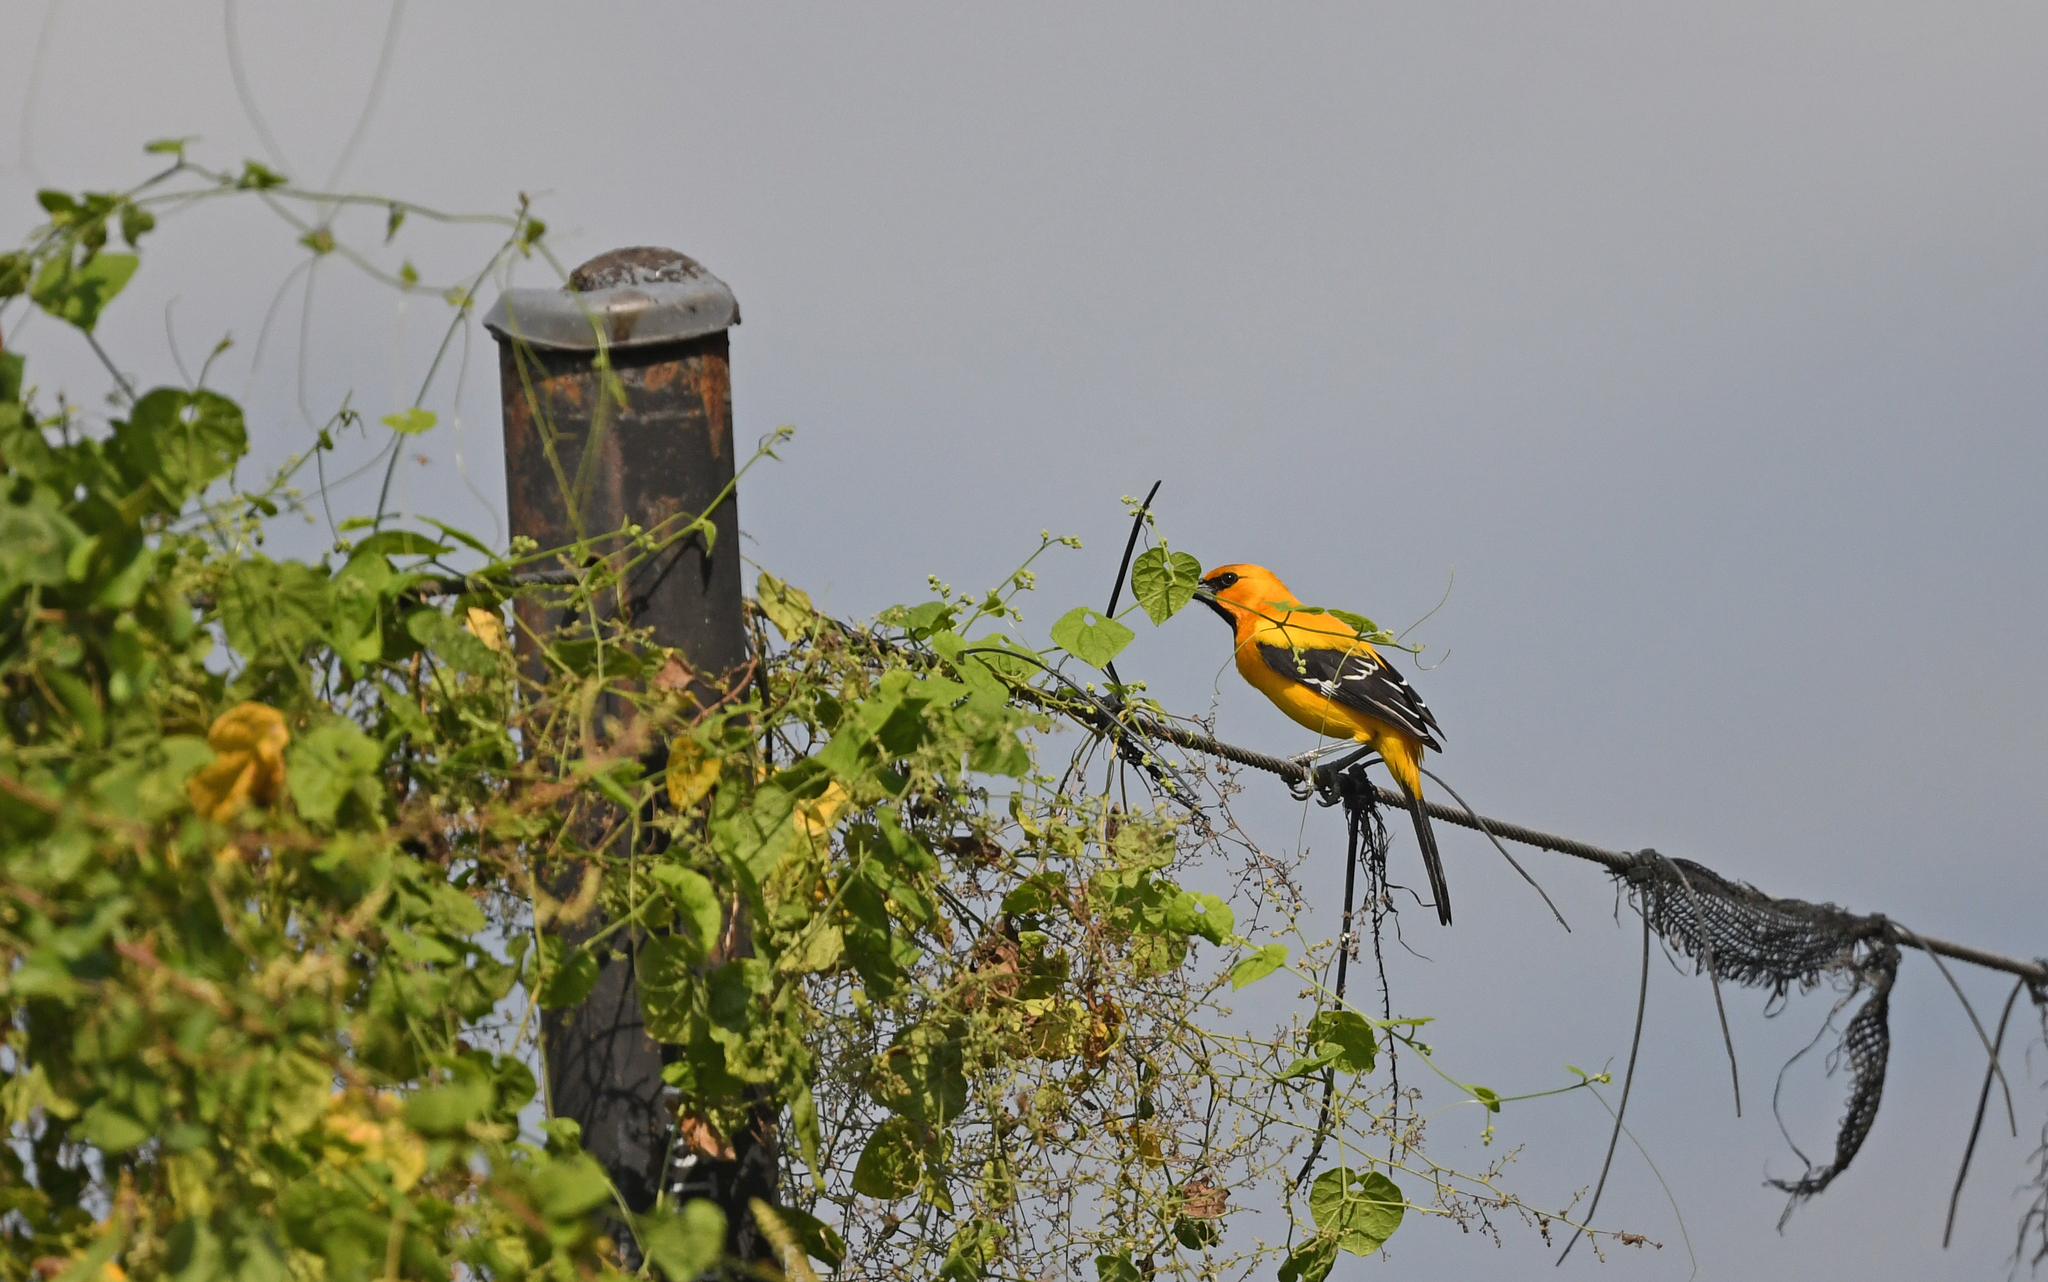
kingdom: Animalia
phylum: Chordata
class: Aves
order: Passeriformes
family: Icteridae
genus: Icterus
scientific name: Icterus nigrogularis
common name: Yellow oriole
